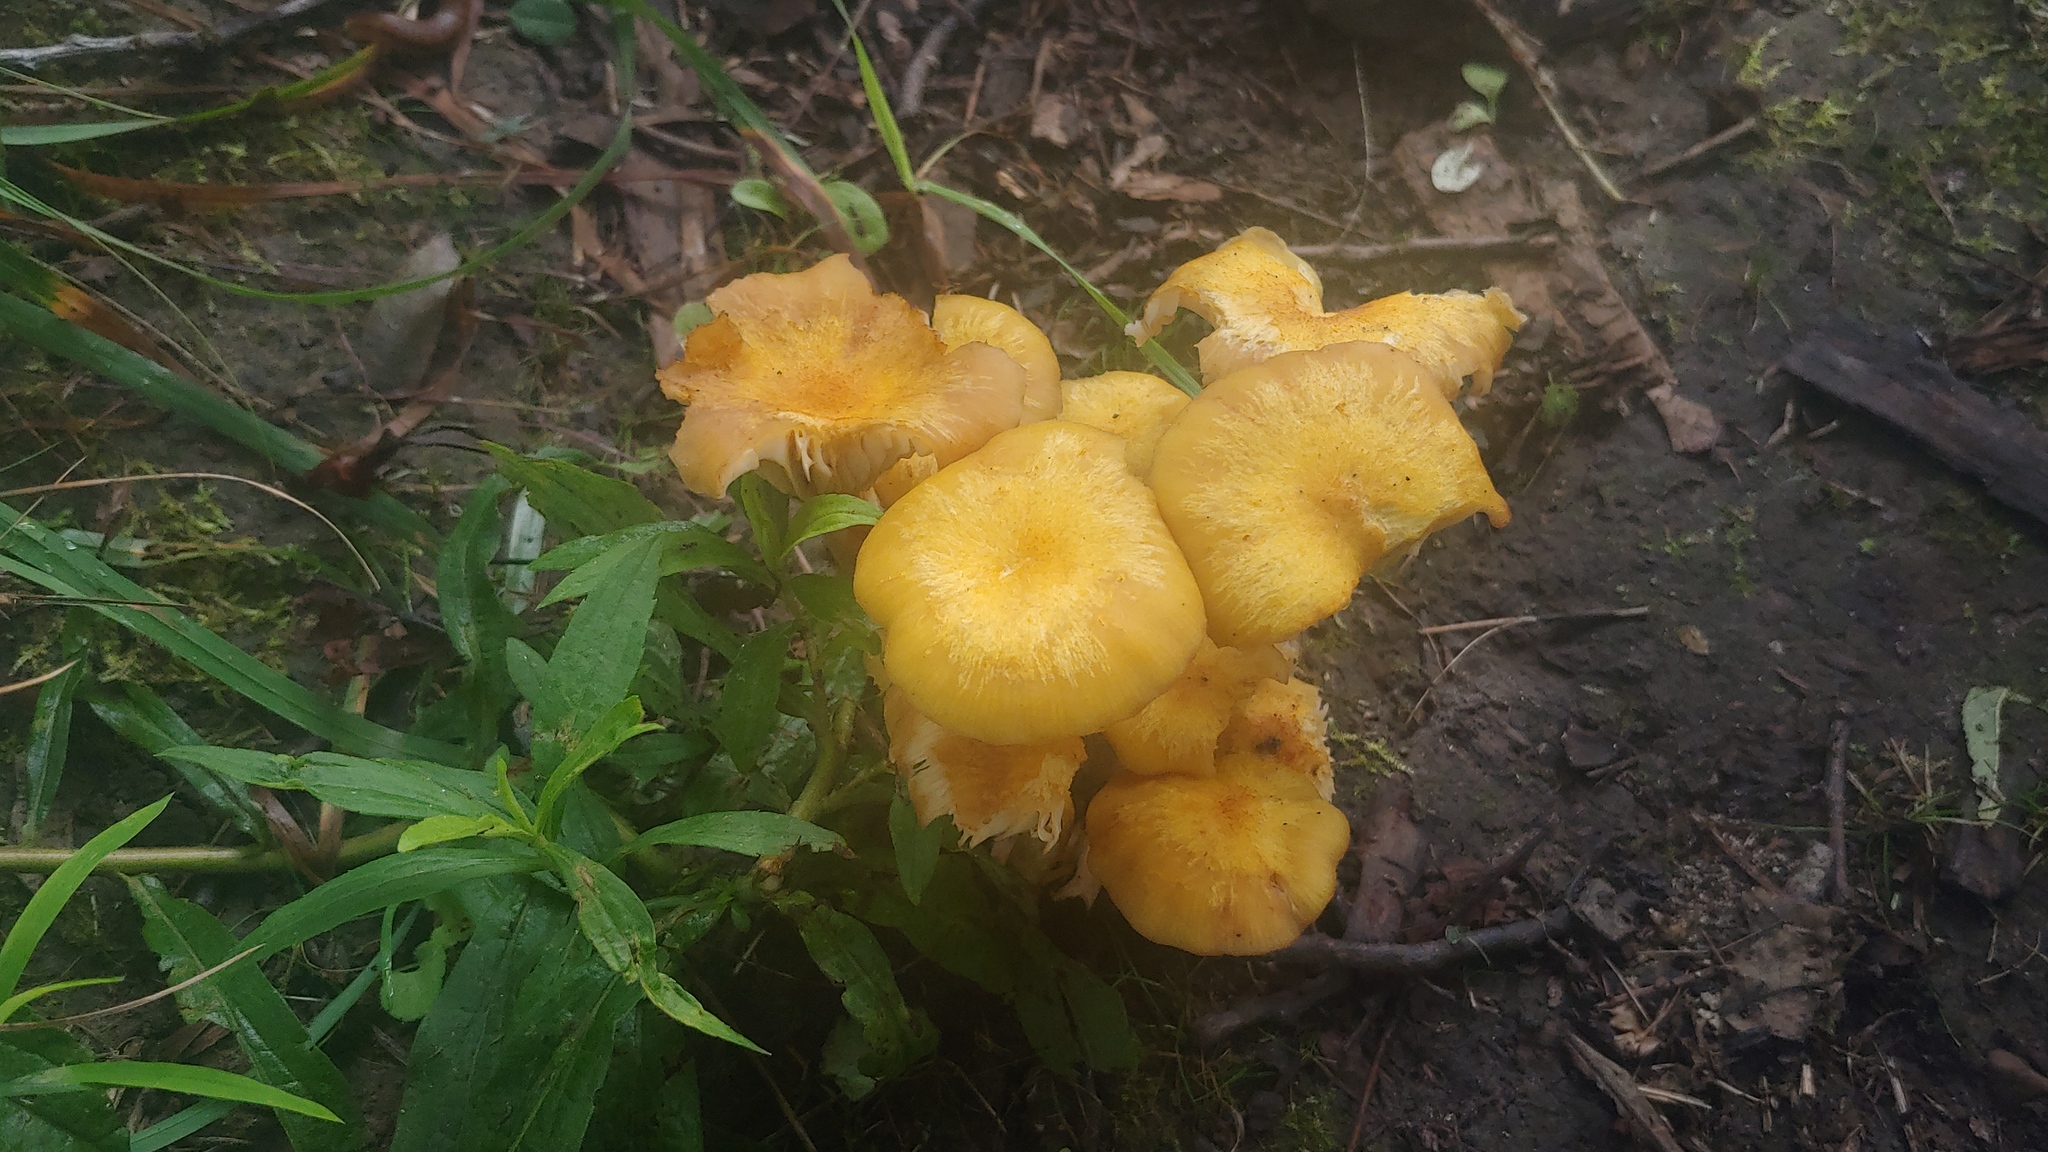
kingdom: Fungi
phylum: Basidiomycota
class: Agaricomycetes
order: Agaricales
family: Physalacriaceae
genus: Desarmillaria
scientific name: Desarmillaria caespitosa
